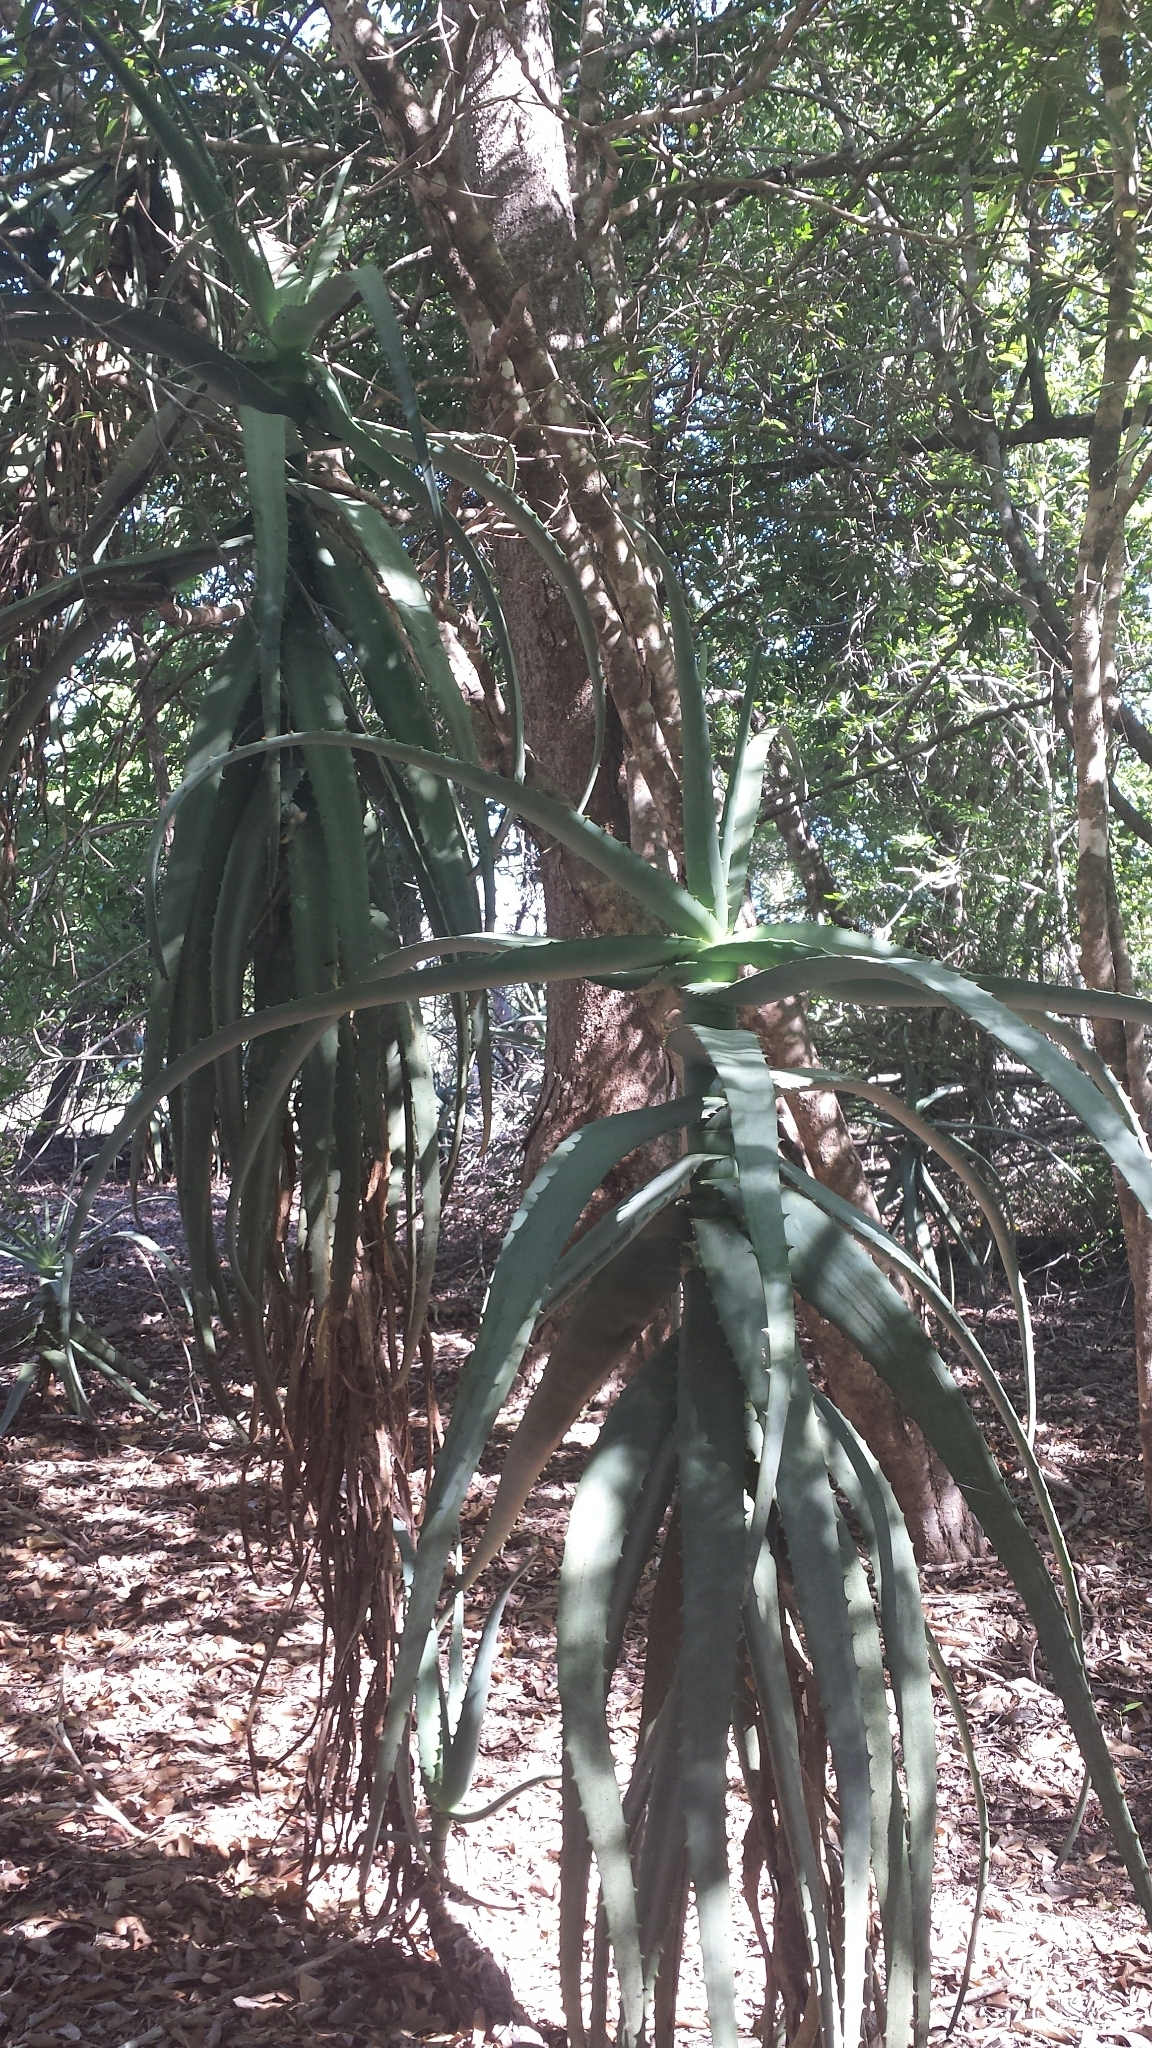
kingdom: Plantae
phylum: Tracheophyta
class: Liliopsida
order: Asparagales
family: Asphodelaceae
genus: Aloe
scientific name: Aloe divaricata
